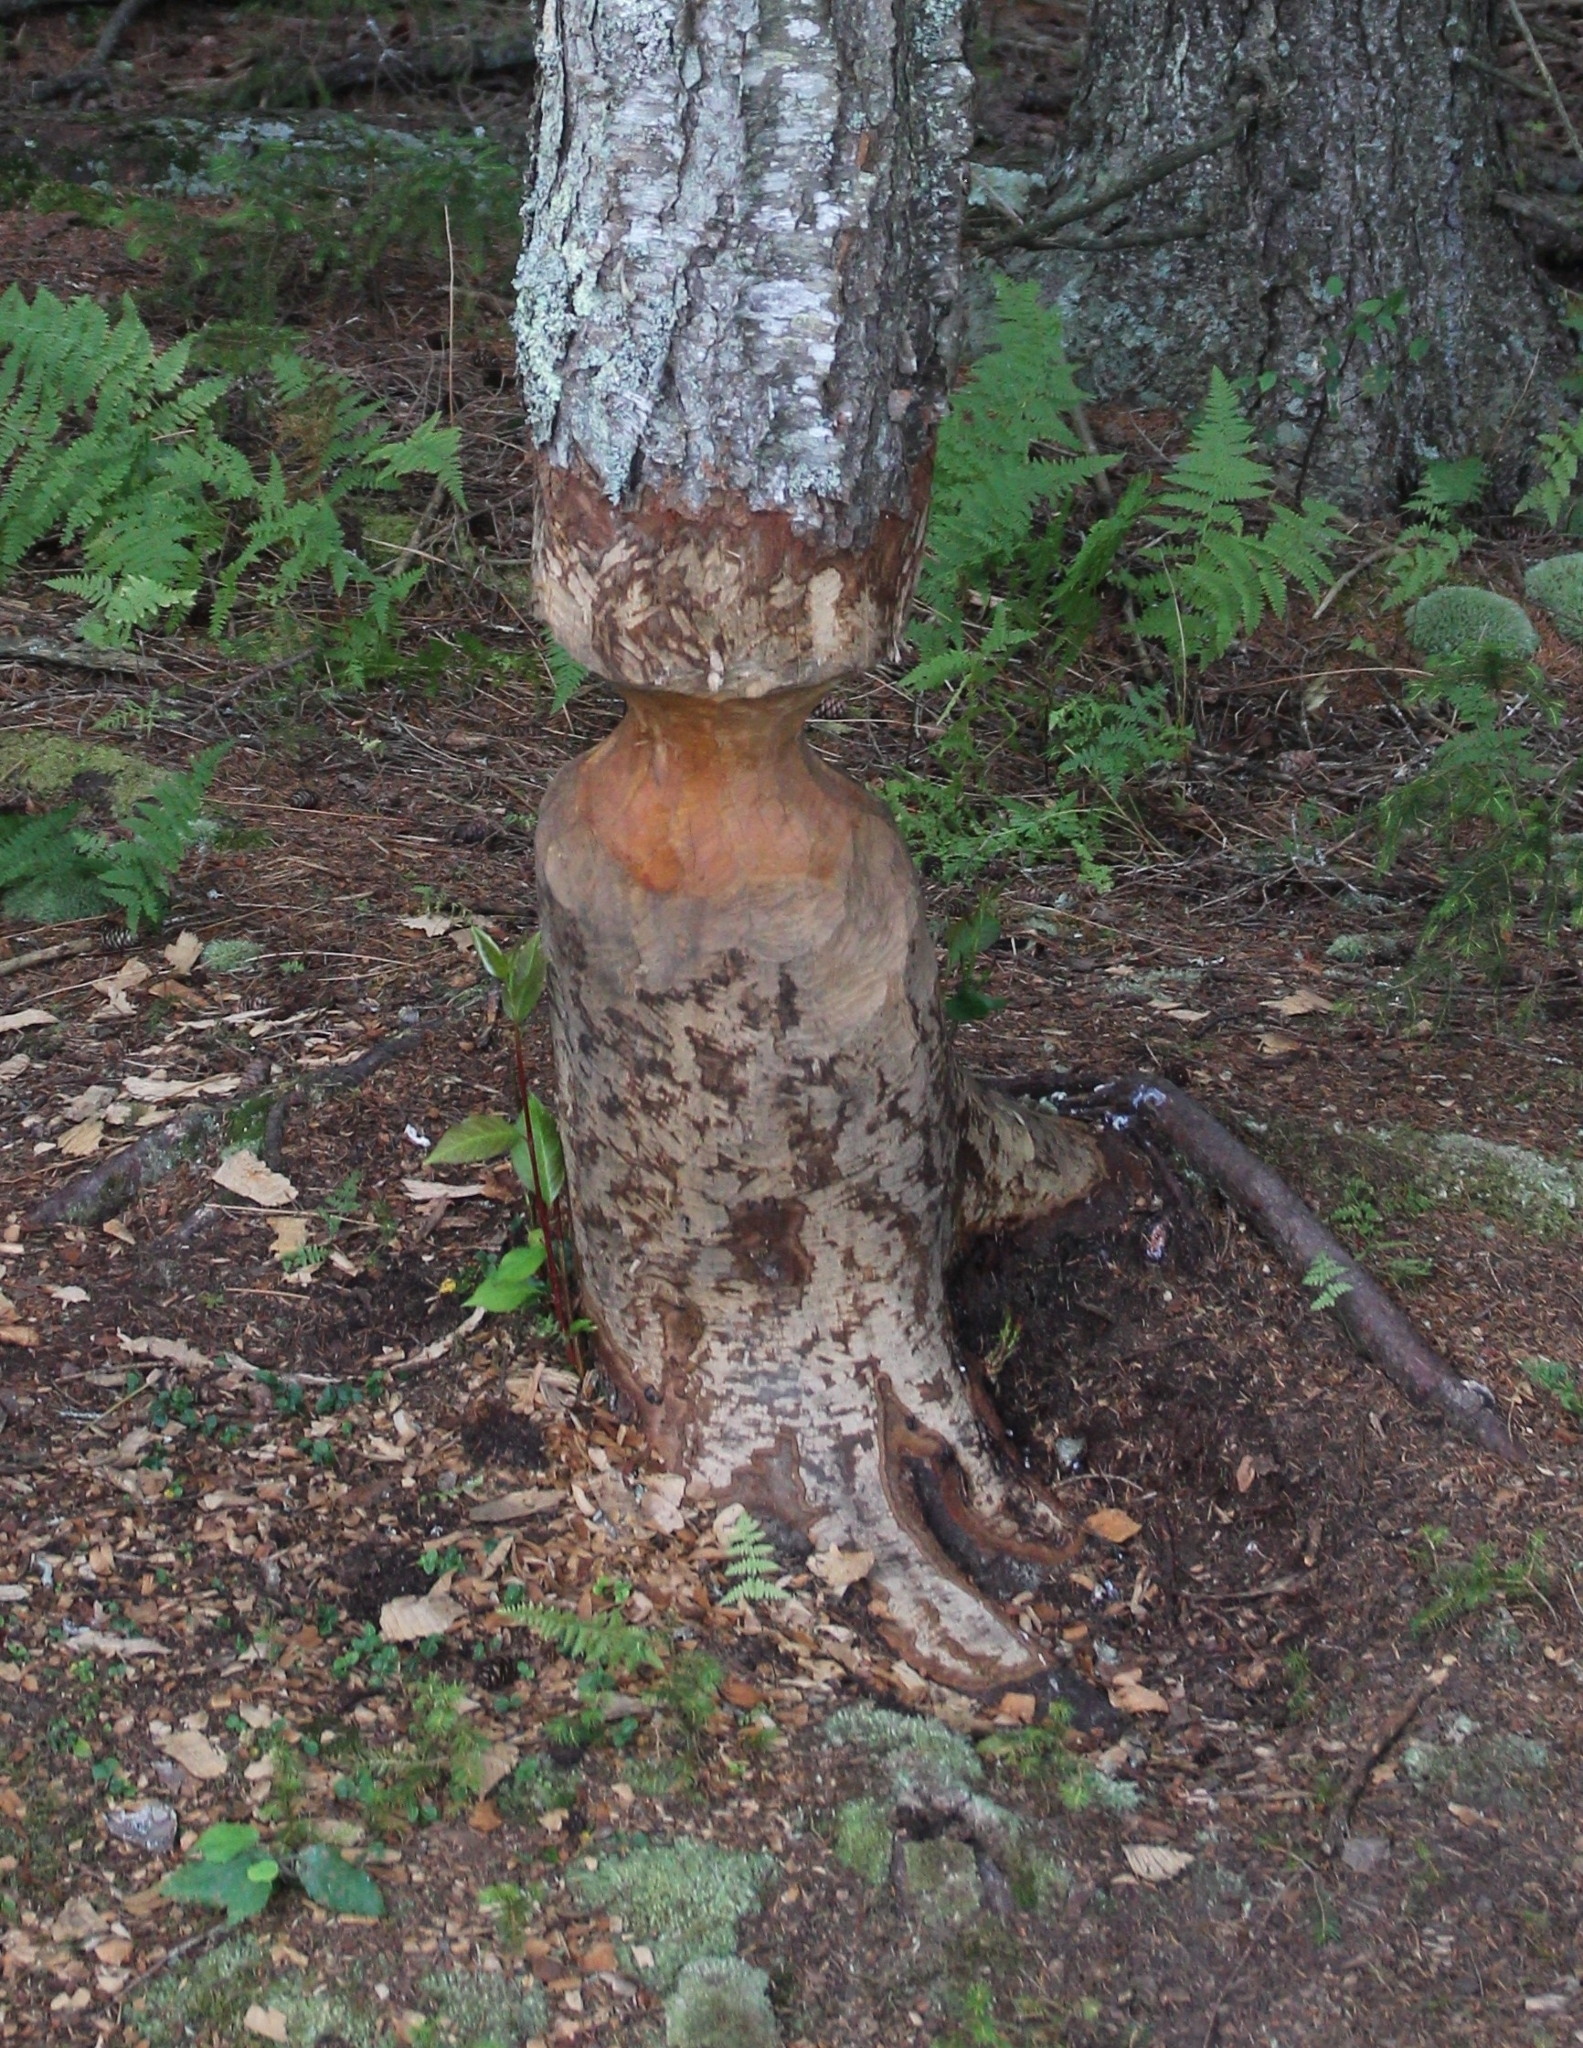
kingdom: Animalia
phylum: Chordata
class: Mammalia
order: Rodentia
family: Castoridae
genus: Castor
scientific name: Castor canadensis
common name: American beaver
